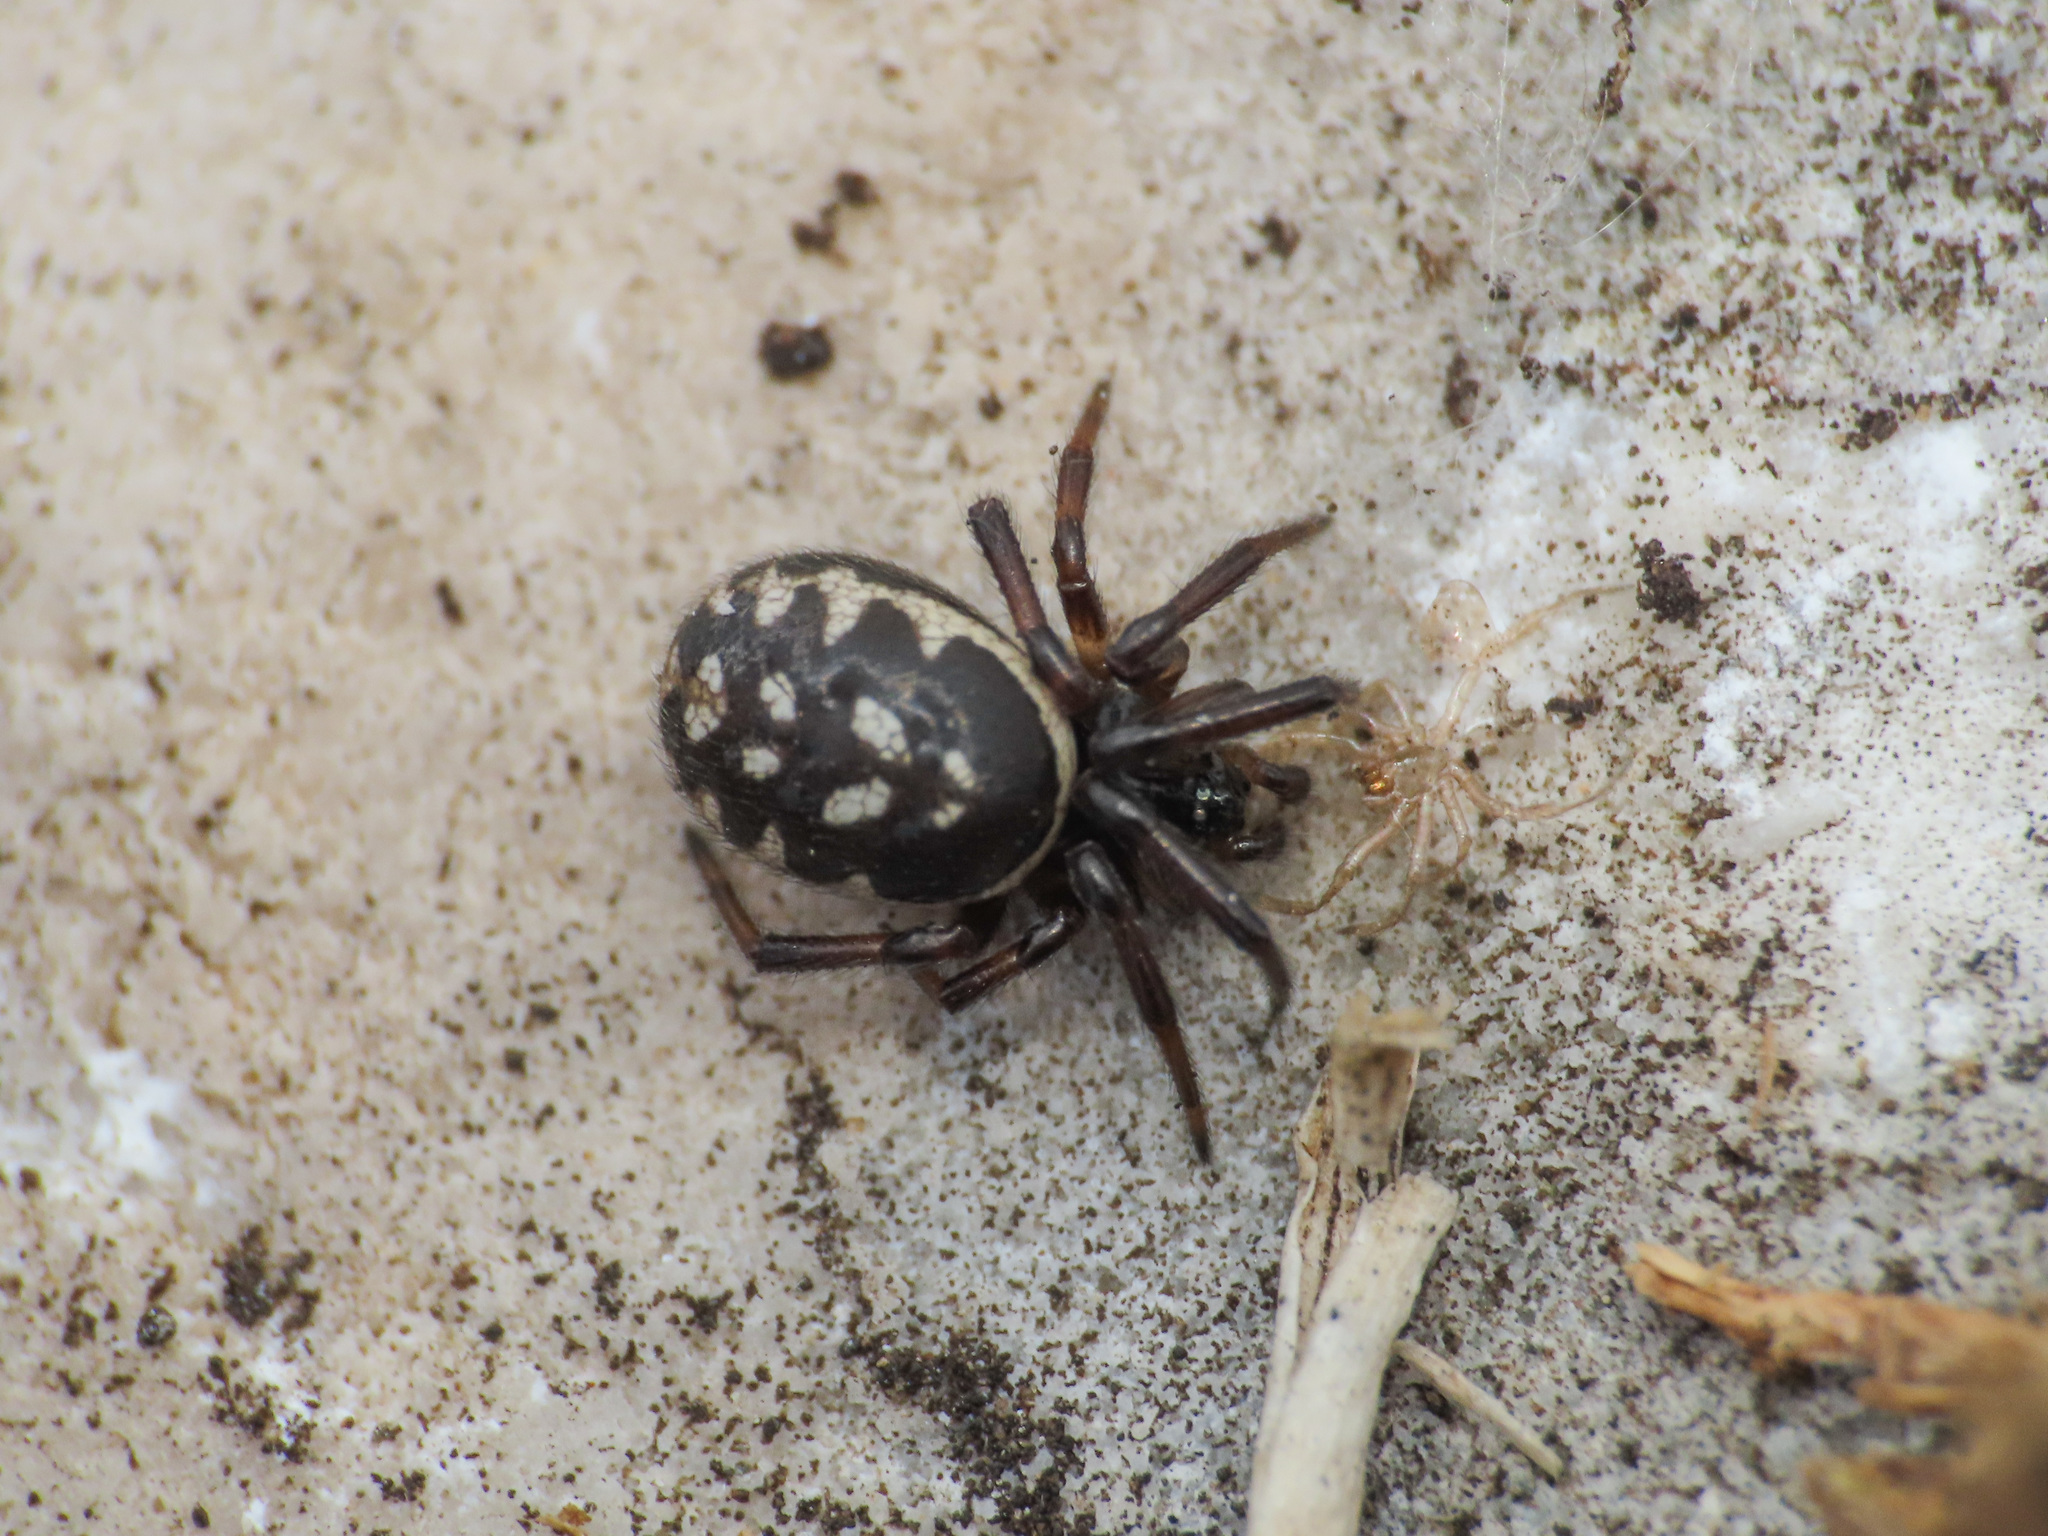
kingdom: Animalia
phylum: Arthropoda
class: Arachnida
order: Araneae
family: Theridiidae
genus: Steatoda
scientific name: Steatoda albomaculata
